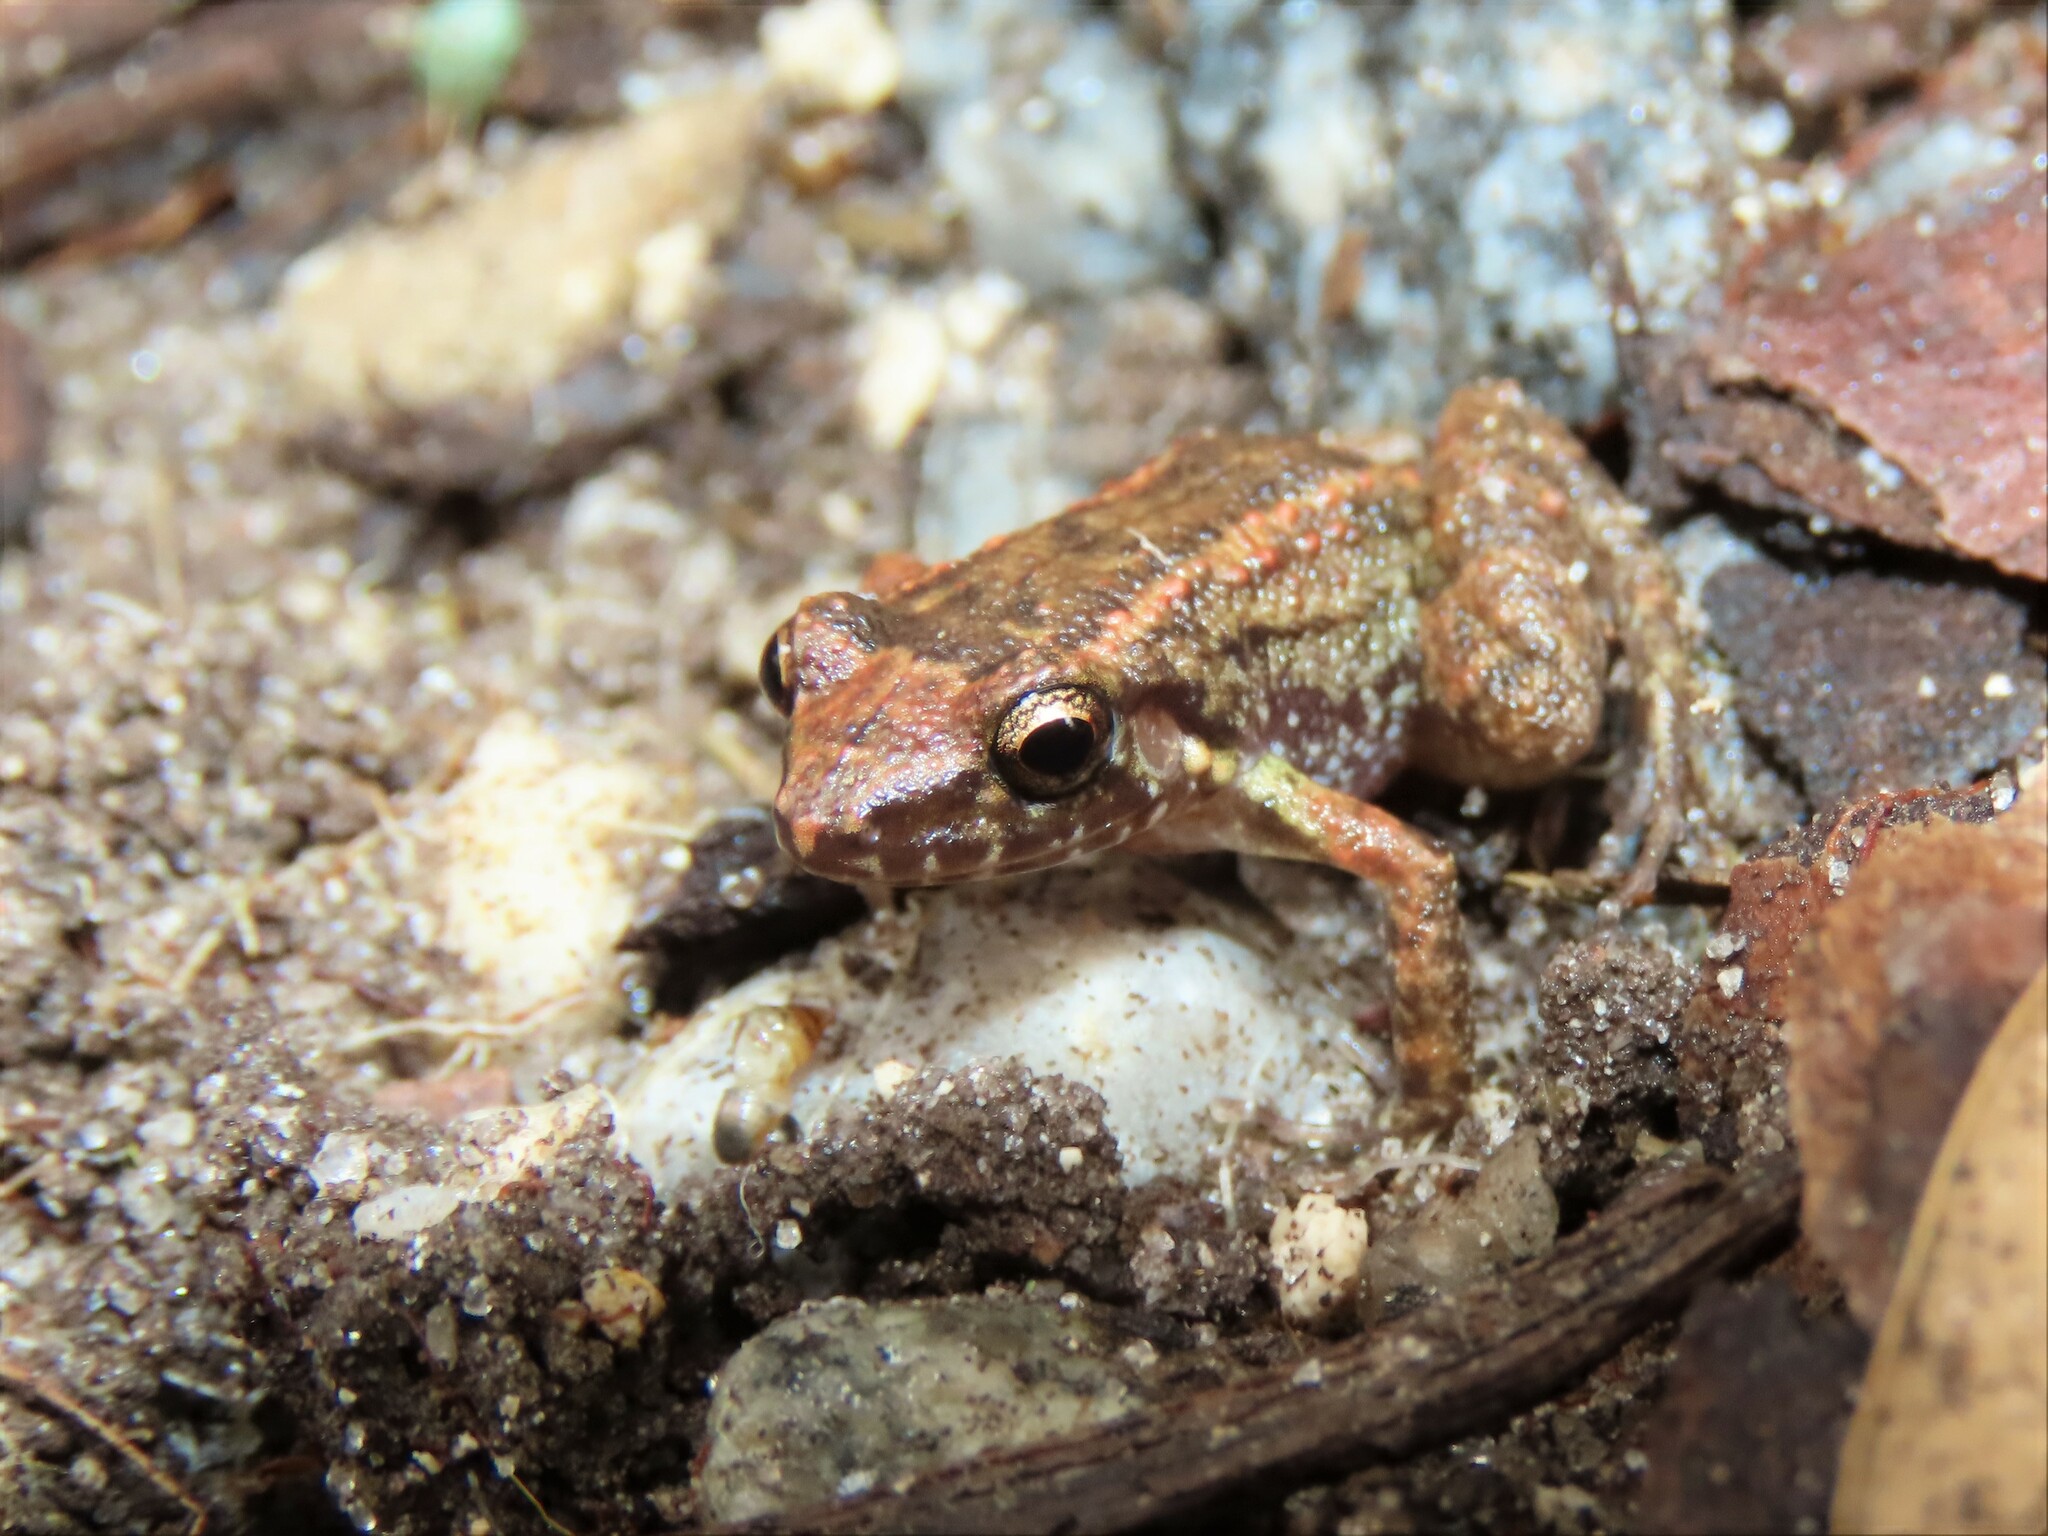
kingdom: Animalia
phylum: Chordata
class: Amphibia
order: Anura
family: Eleutherodactylidae
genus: Eleutherodactylus
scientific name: Eleutherodactylus planirostris
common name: Greenhouse frog
